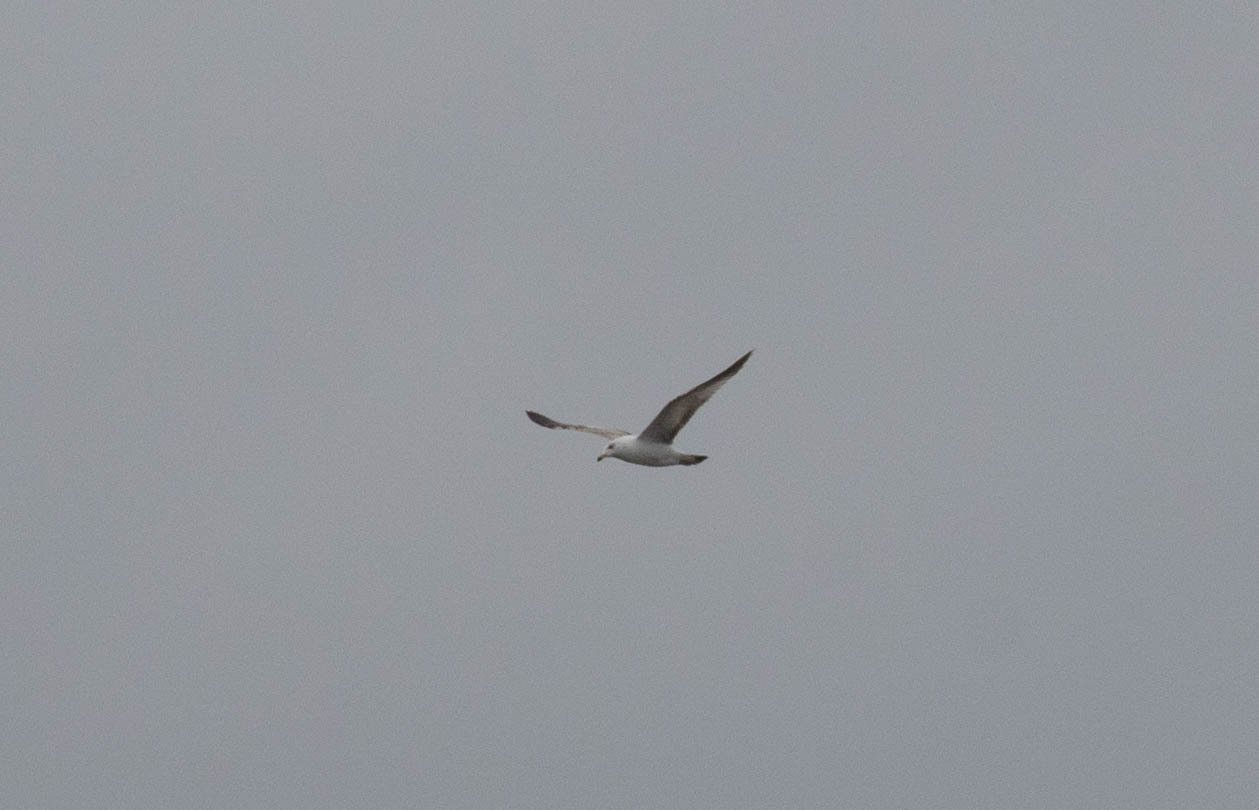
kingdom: Animalia
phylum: Chordata
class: Aves
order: Charadriiformes
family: Laridae
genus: Larus
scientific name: Larus delawarensis
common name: Ring-billed gull
